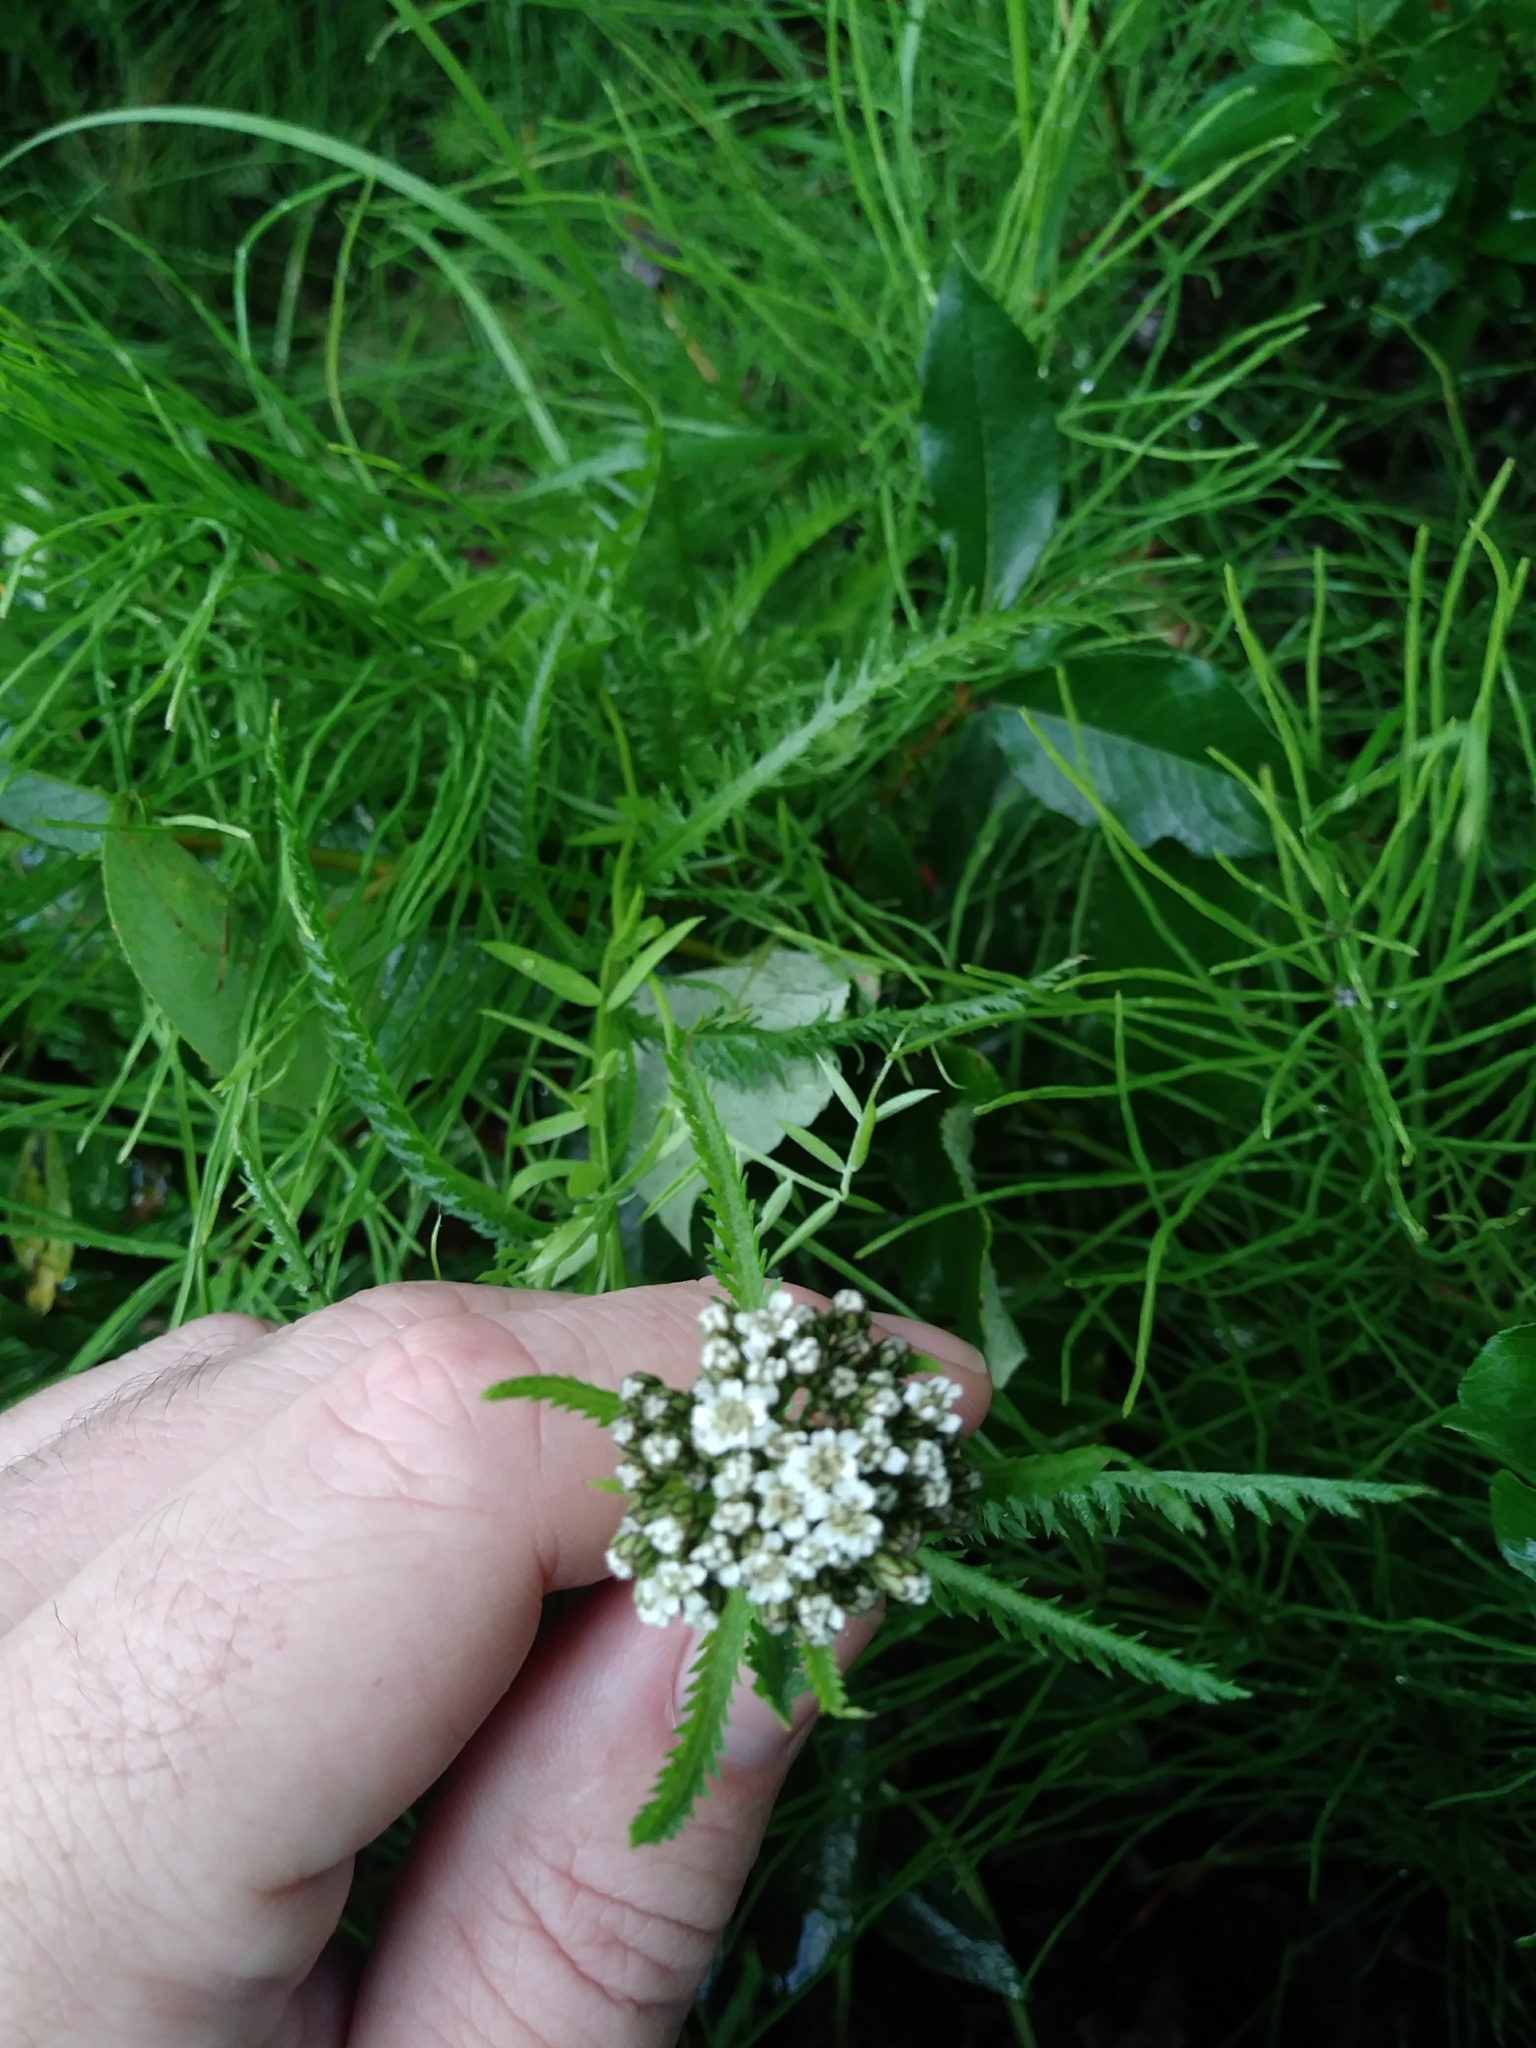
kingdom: Plantae
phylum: Tracheophyta
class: Magnoliopsida
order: Asterales
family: Asteraceae
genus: Achillea
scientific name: Achillea alpina
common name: Siberian yarrow
